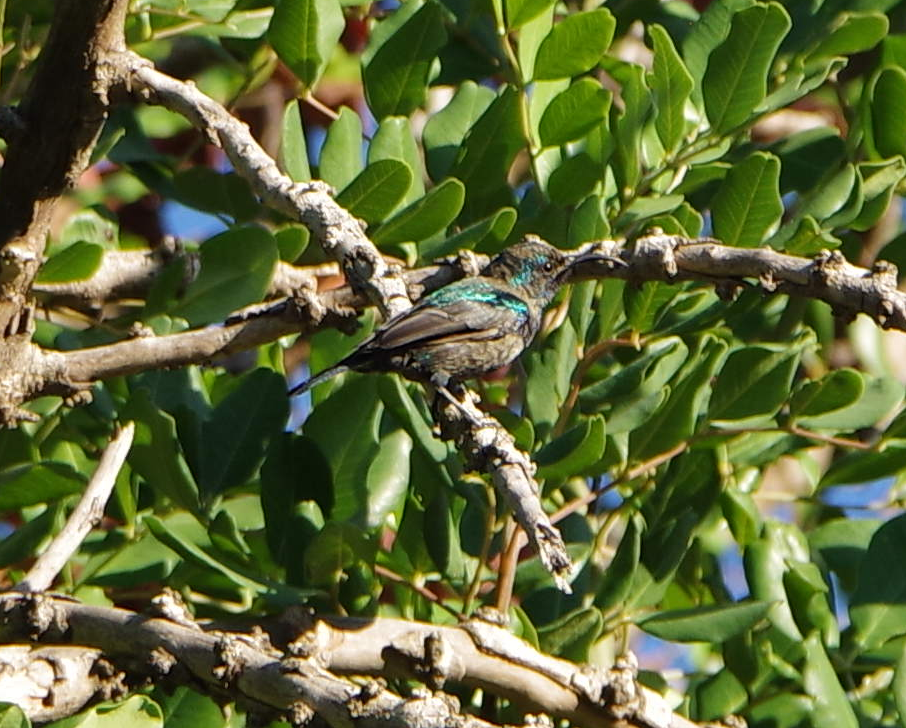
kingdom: Animalia
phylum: Chordata
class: Aves
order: Passeriformes
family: Nectariniidae
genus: Cinnyris
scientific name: Cinnyris osea
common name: Palestine sunbird
